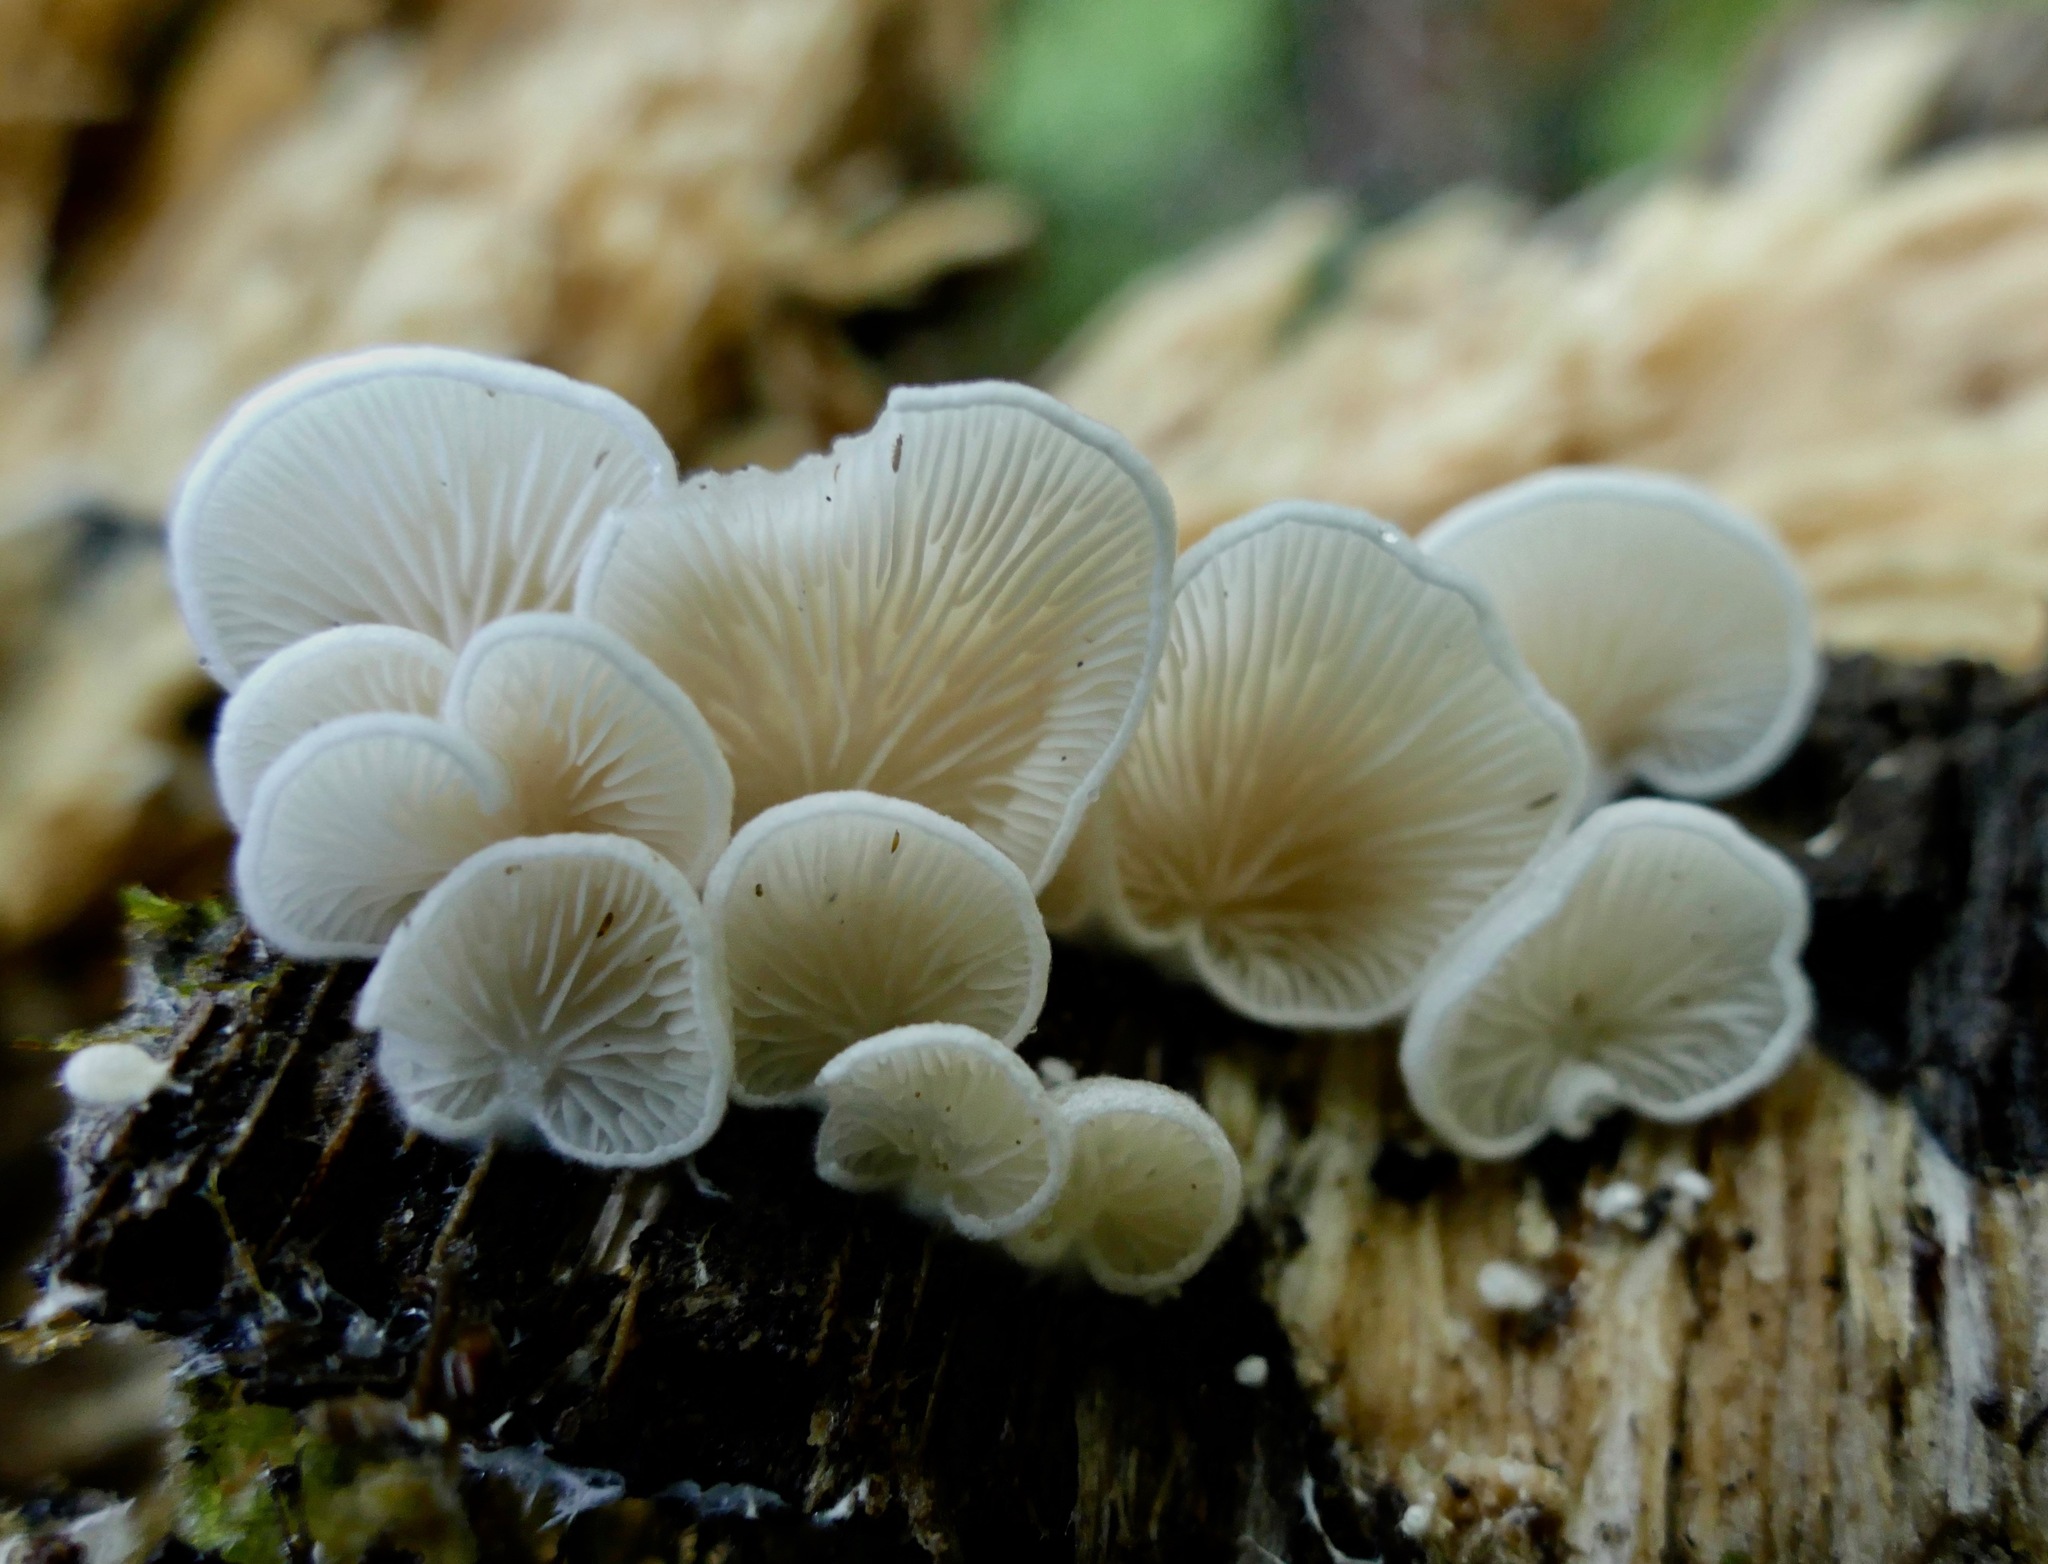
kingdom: Fungi
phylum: Basidiomycota
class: Agaricomycetes
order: Agaricales
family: Crepidotaceae
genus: Crepidotus
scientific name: Crepidotus mollis
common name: Peeling oysterling
